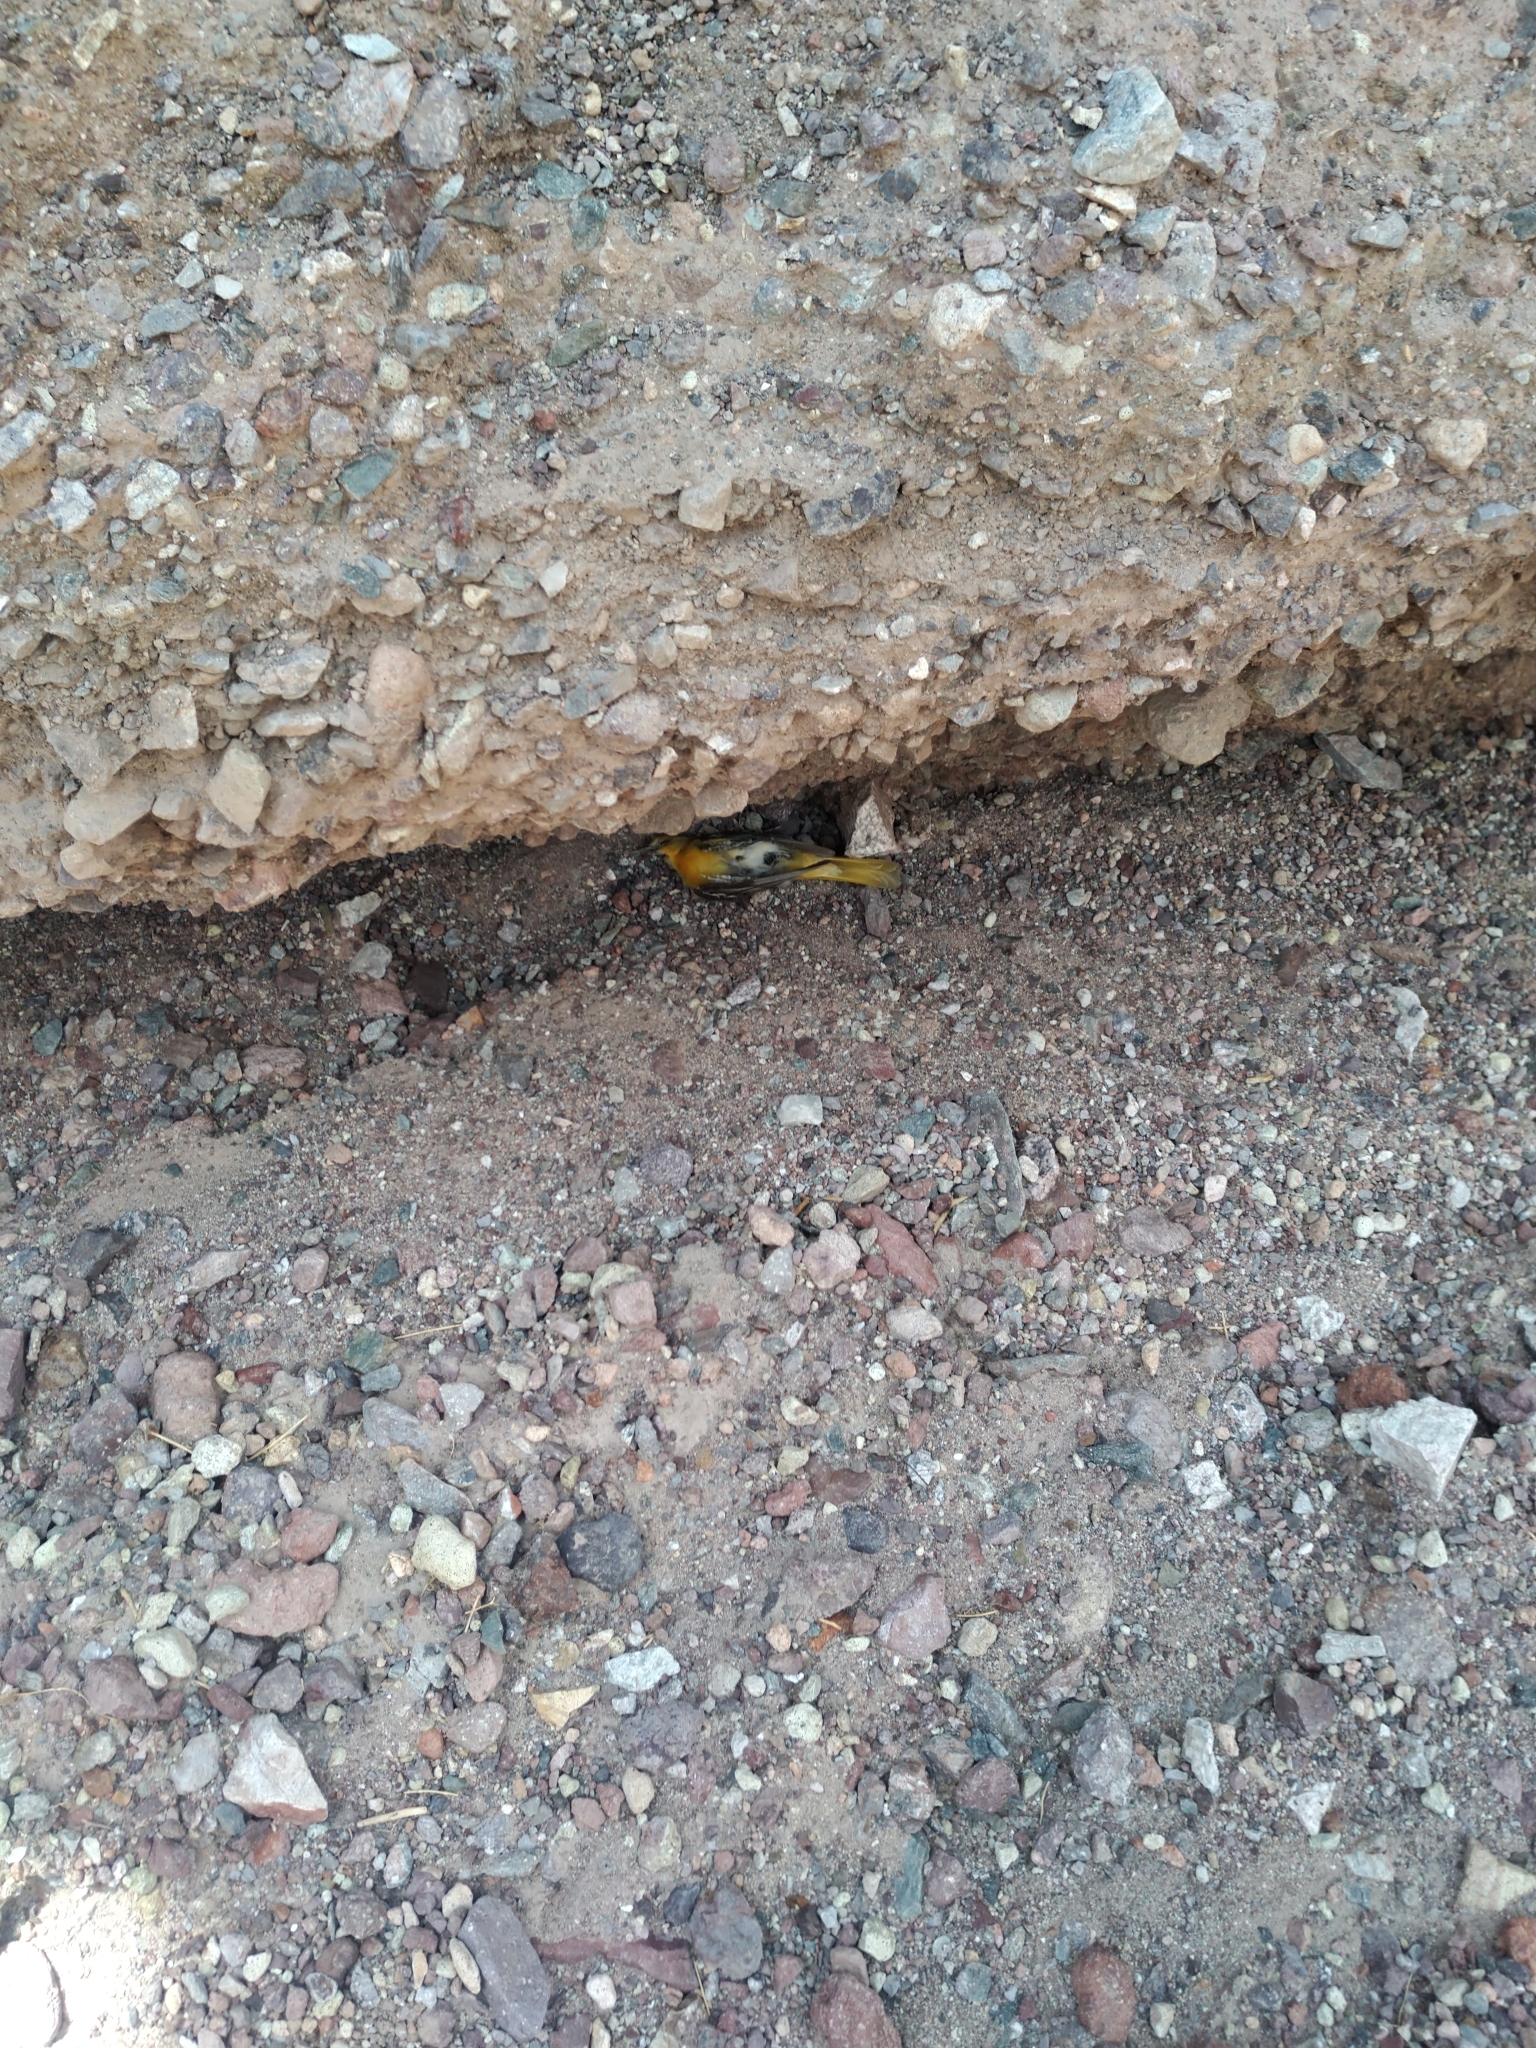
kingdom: Animalia
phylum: Chordata
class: Aves
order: Passeriformes
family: Icteridae
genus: Icterus
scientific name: Icterus bullockii
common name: Bullock's oriole
